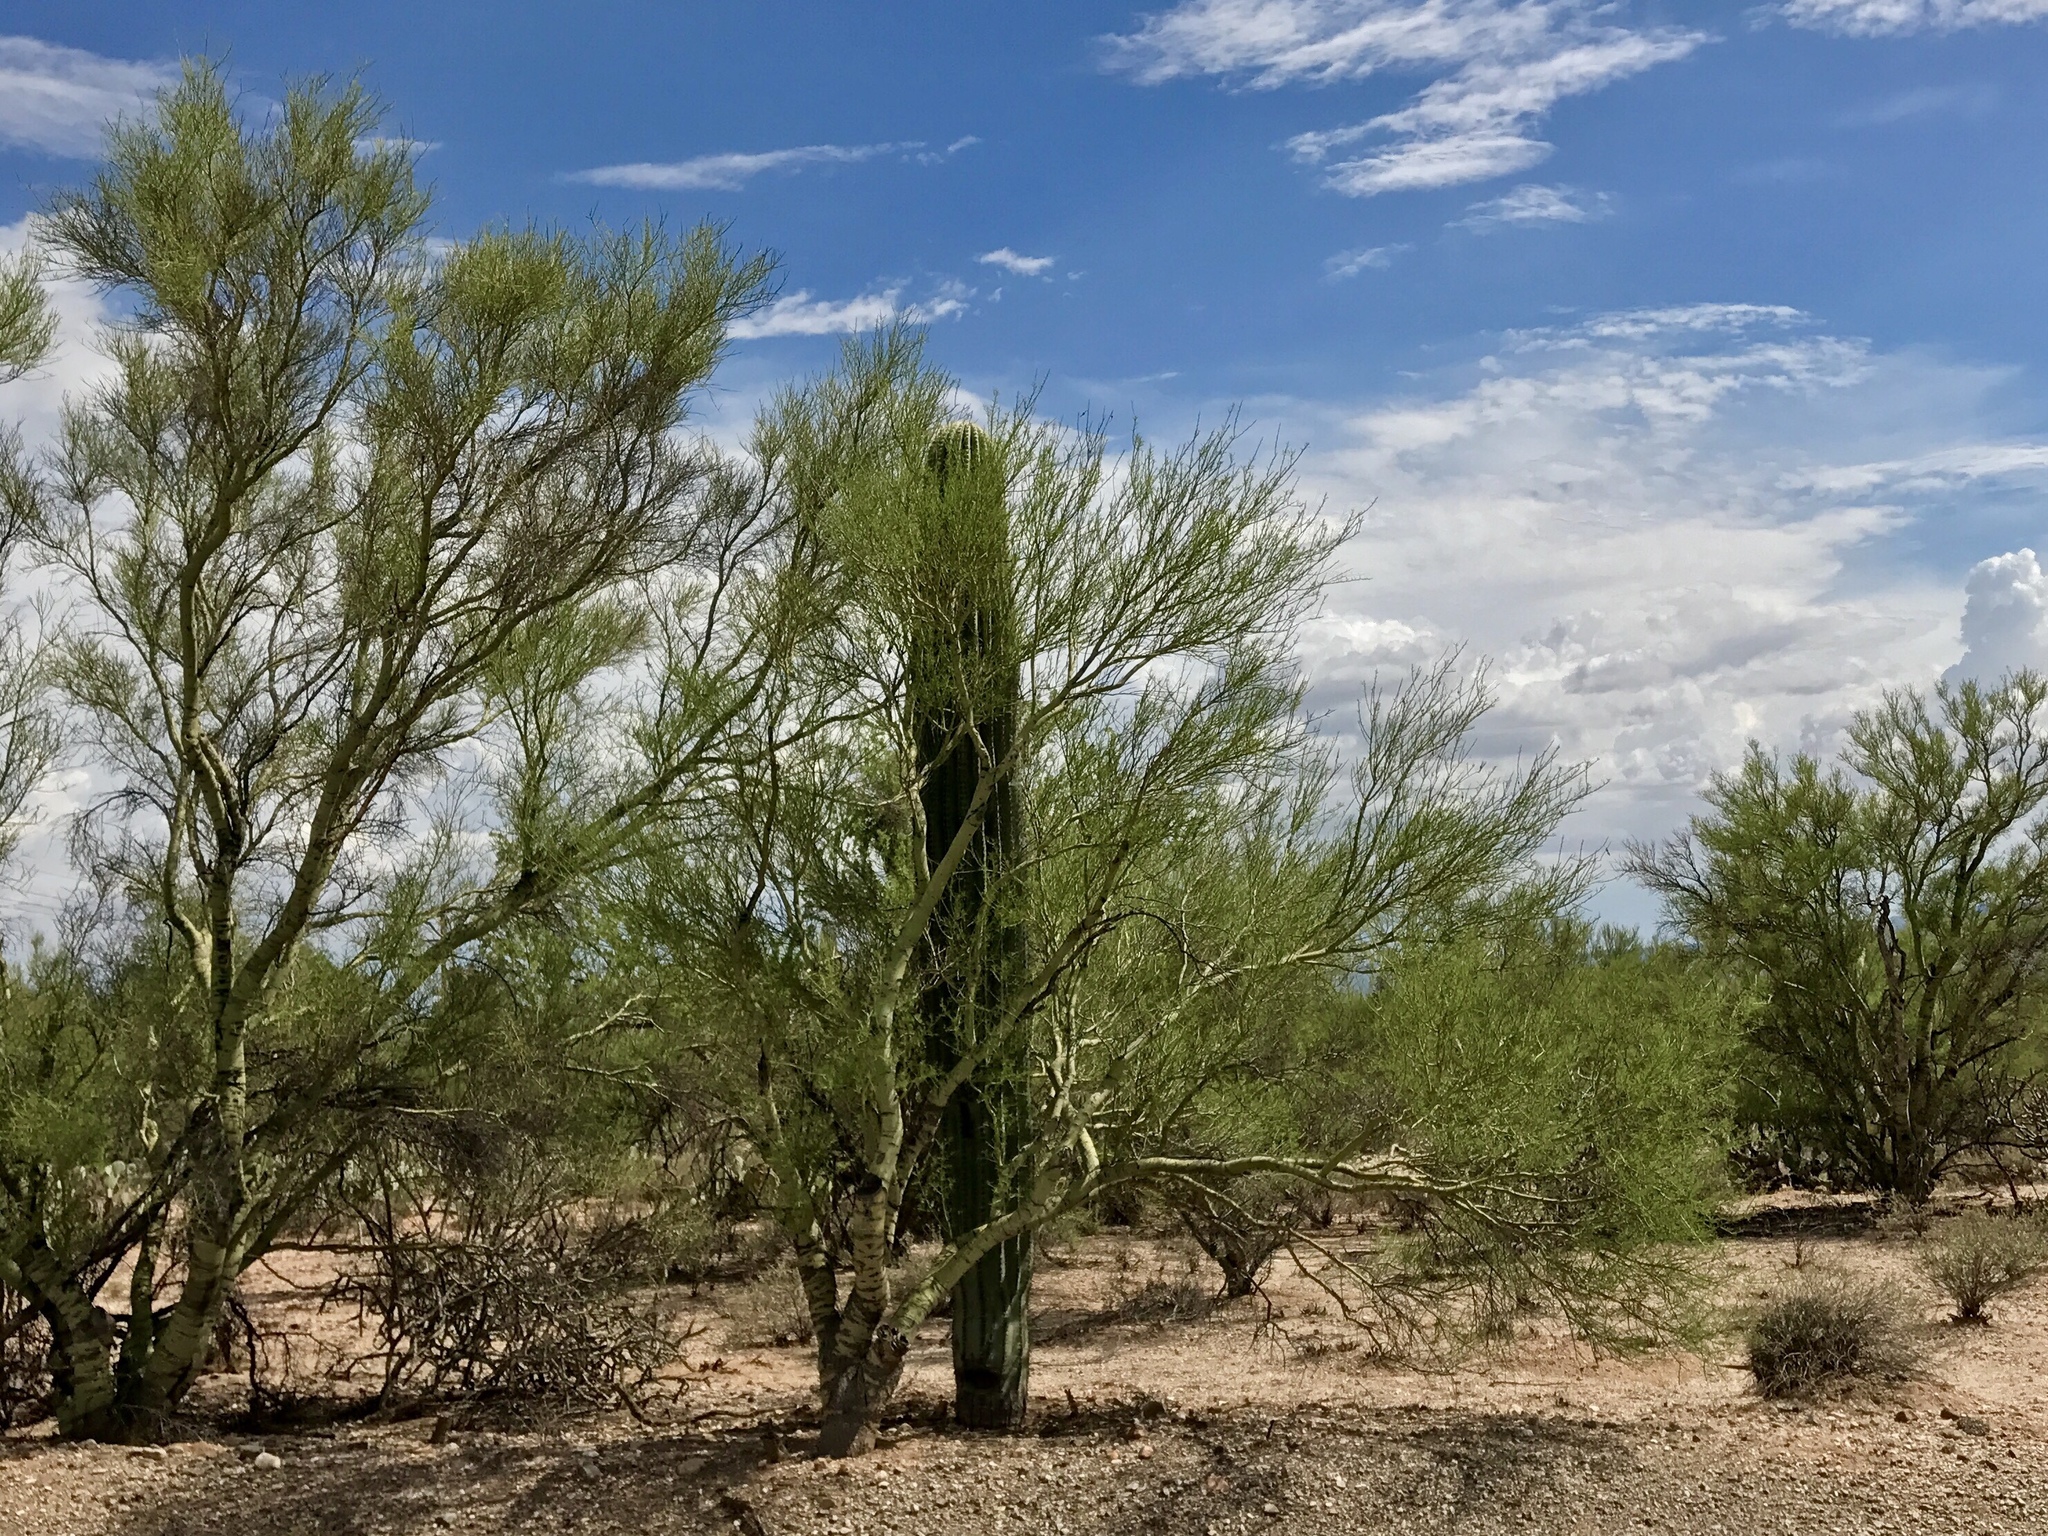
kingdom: Plantae
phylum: Tracheophyta
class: Magnoliopsida
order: Caryophyllales
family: Cactaceae
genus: Carnegiea
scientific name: Carnegiea gigantea
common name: Saguaro
